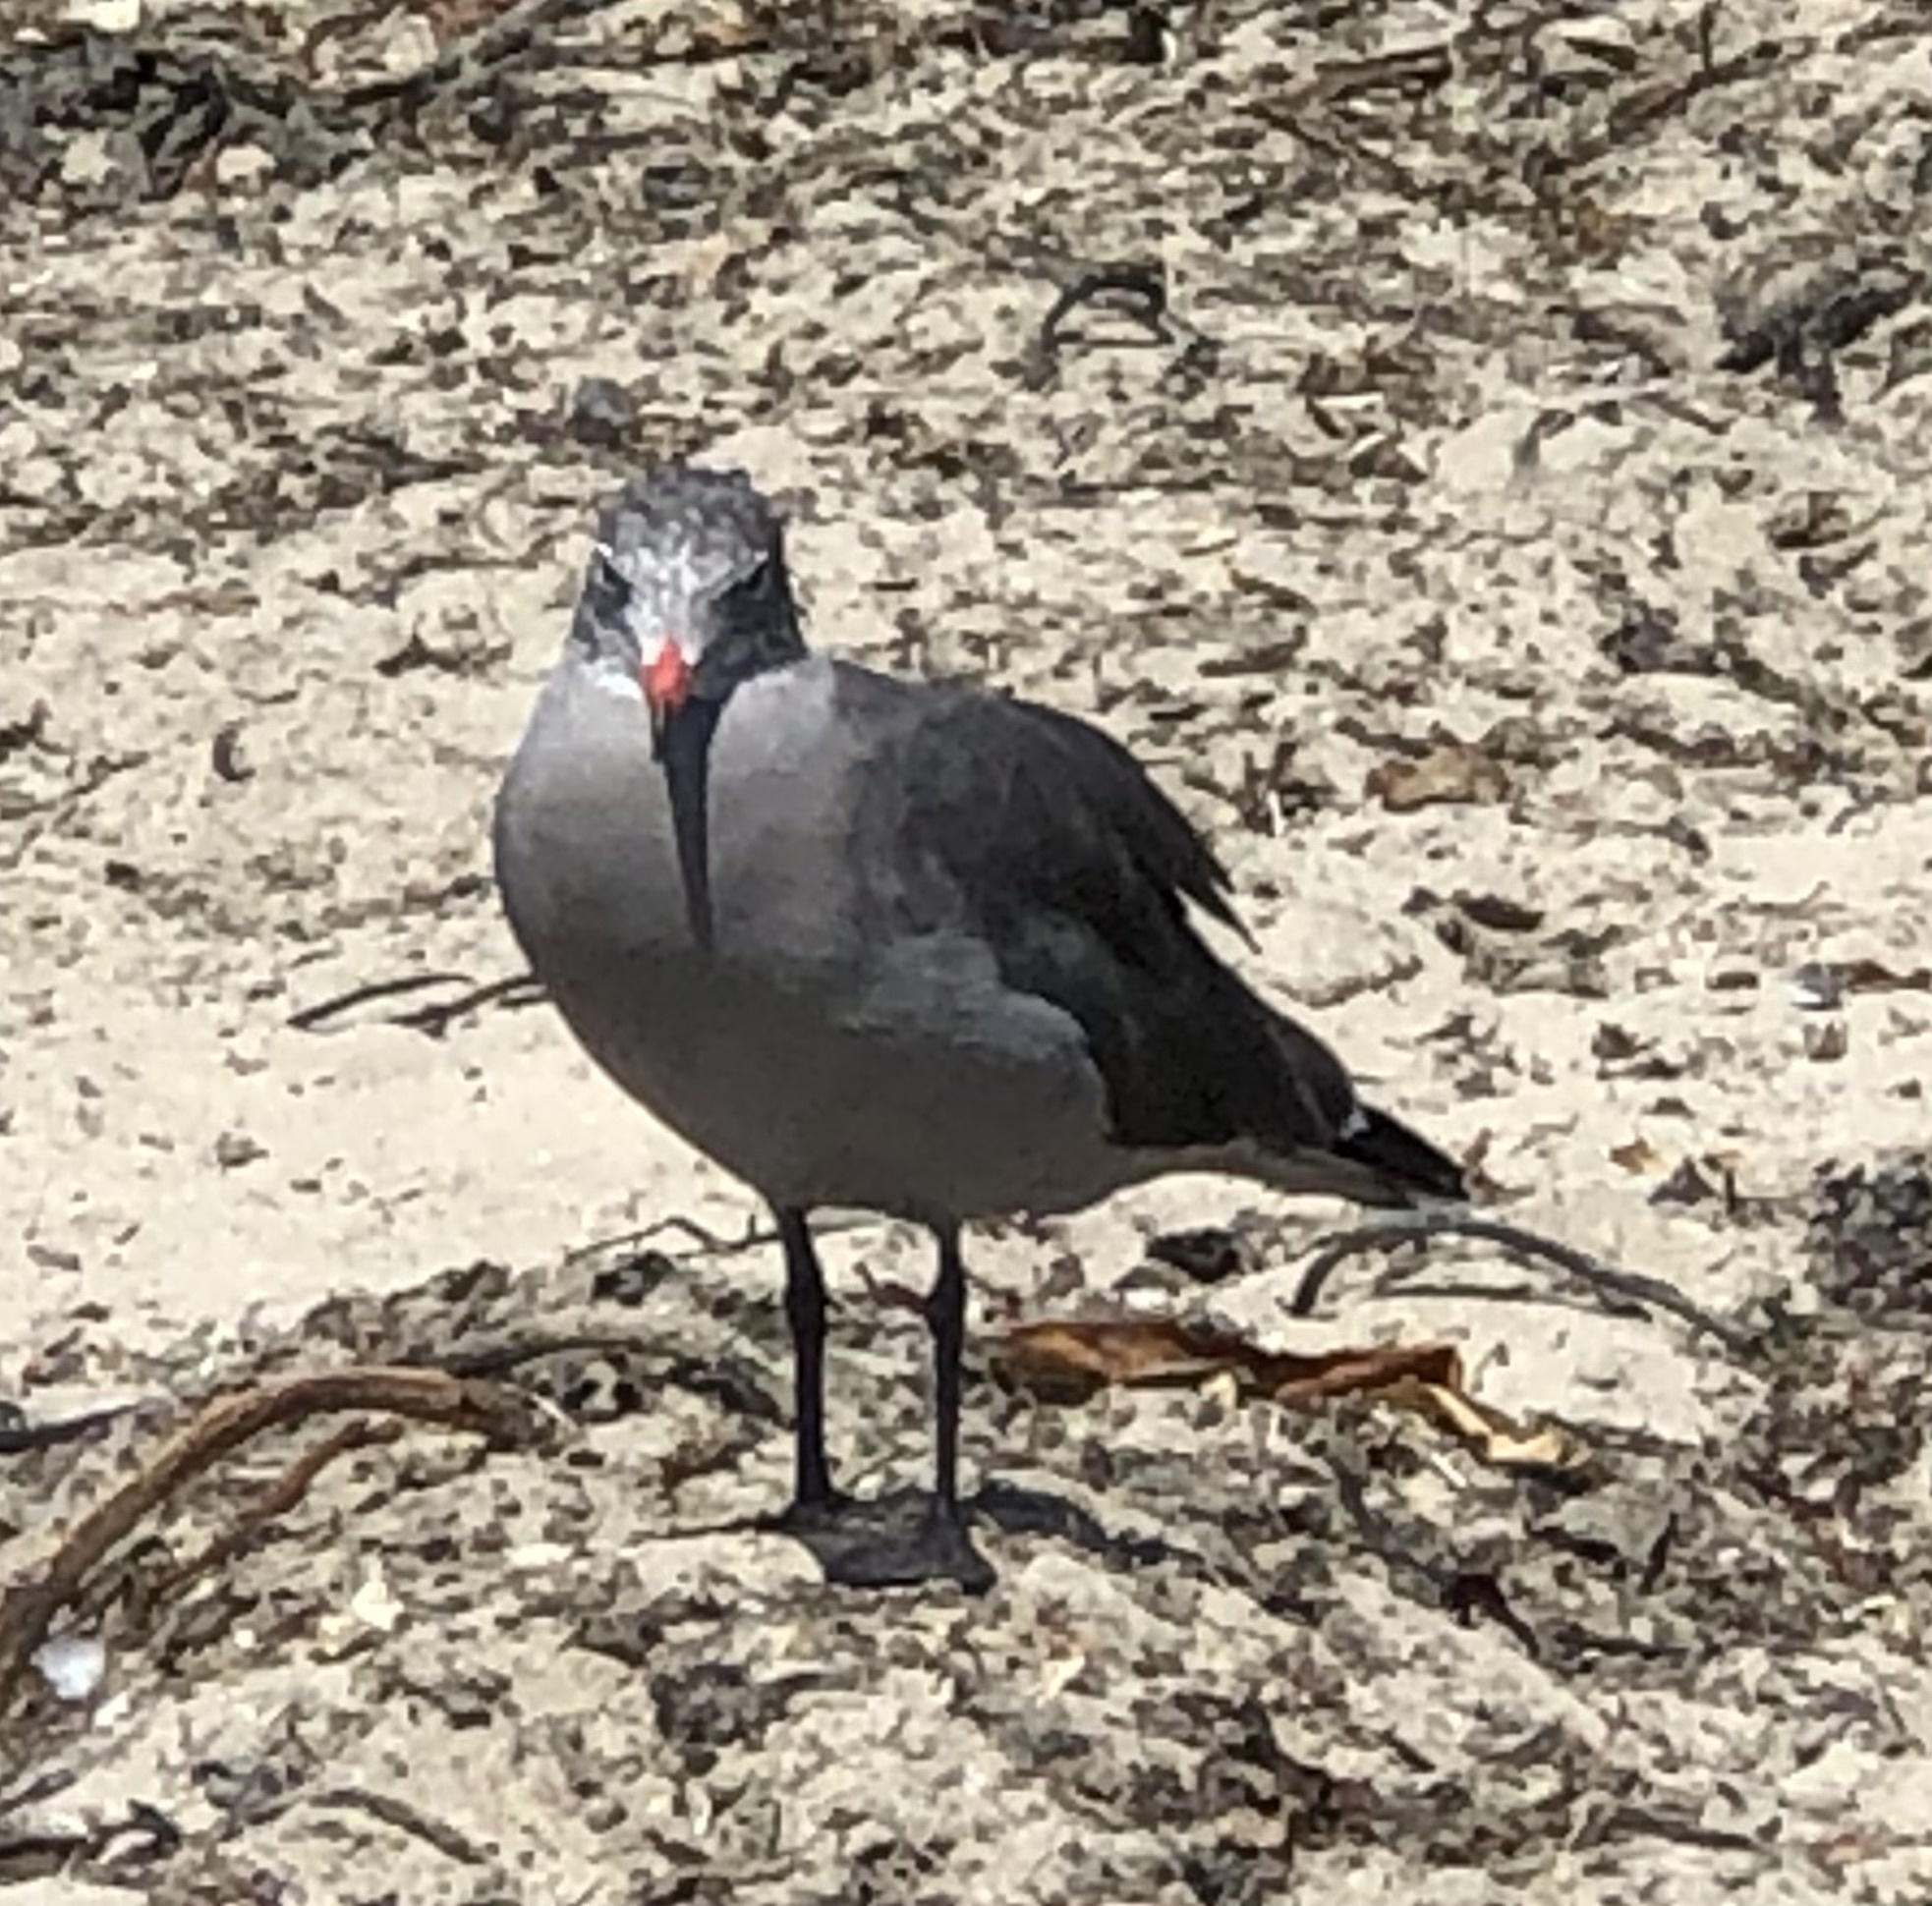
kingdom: Animalia
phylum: Chordata
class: Aves
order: Charadriiformes
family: Laridae
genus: Larus
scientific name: Larus heermanni
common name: Heermann's gull
